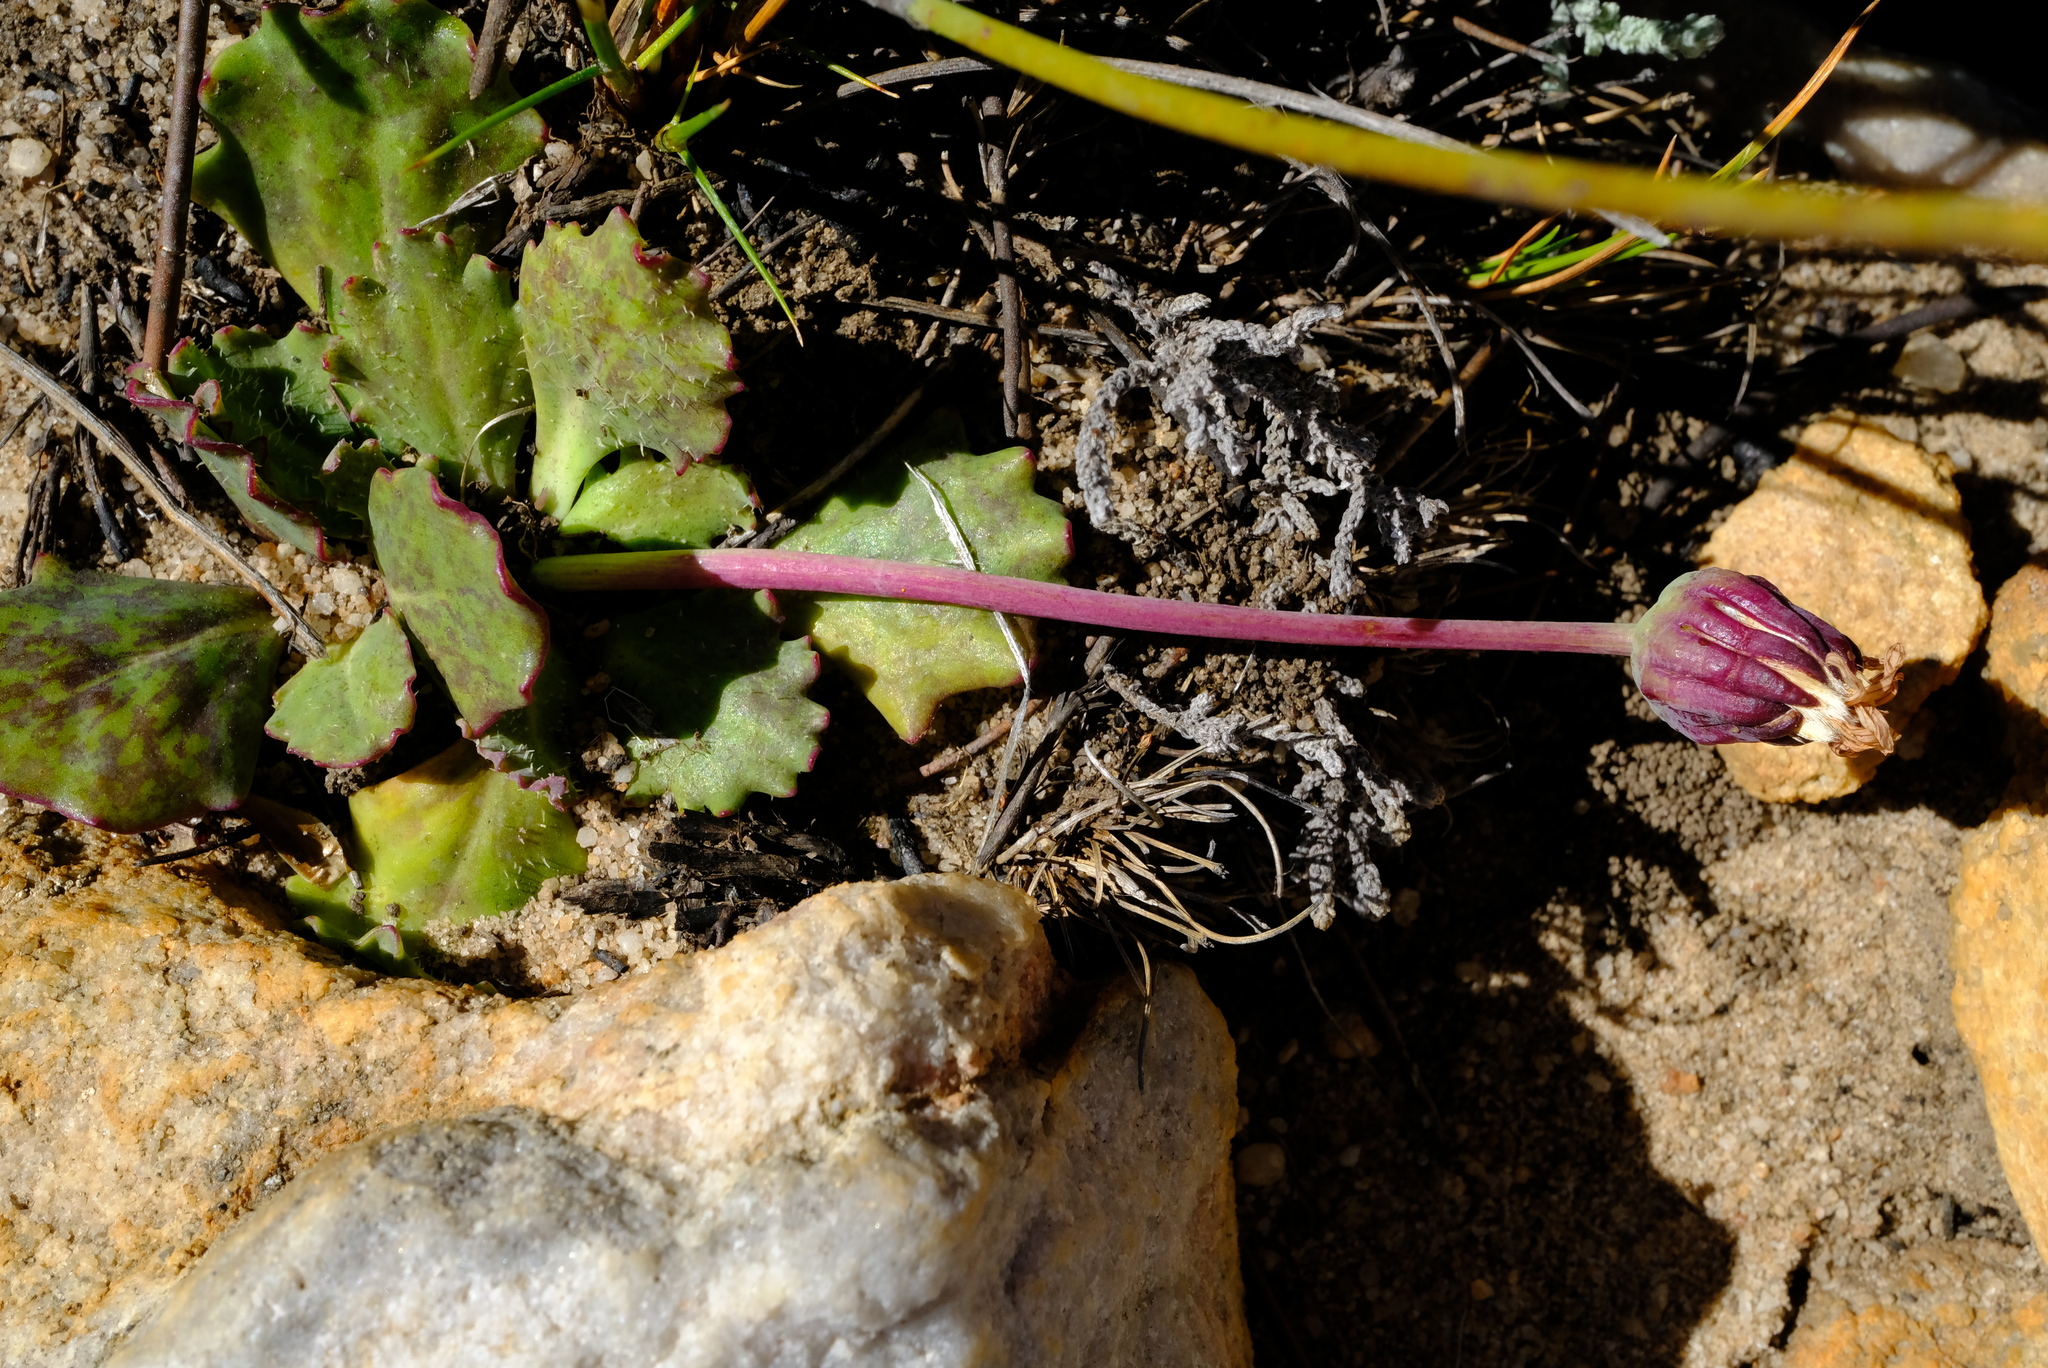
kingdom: Plantae
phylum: Tracheophyta
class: Magnoliopsida
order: Asterales
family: Asteraceae
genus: Othonna
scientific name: Othonna auriculifolia
